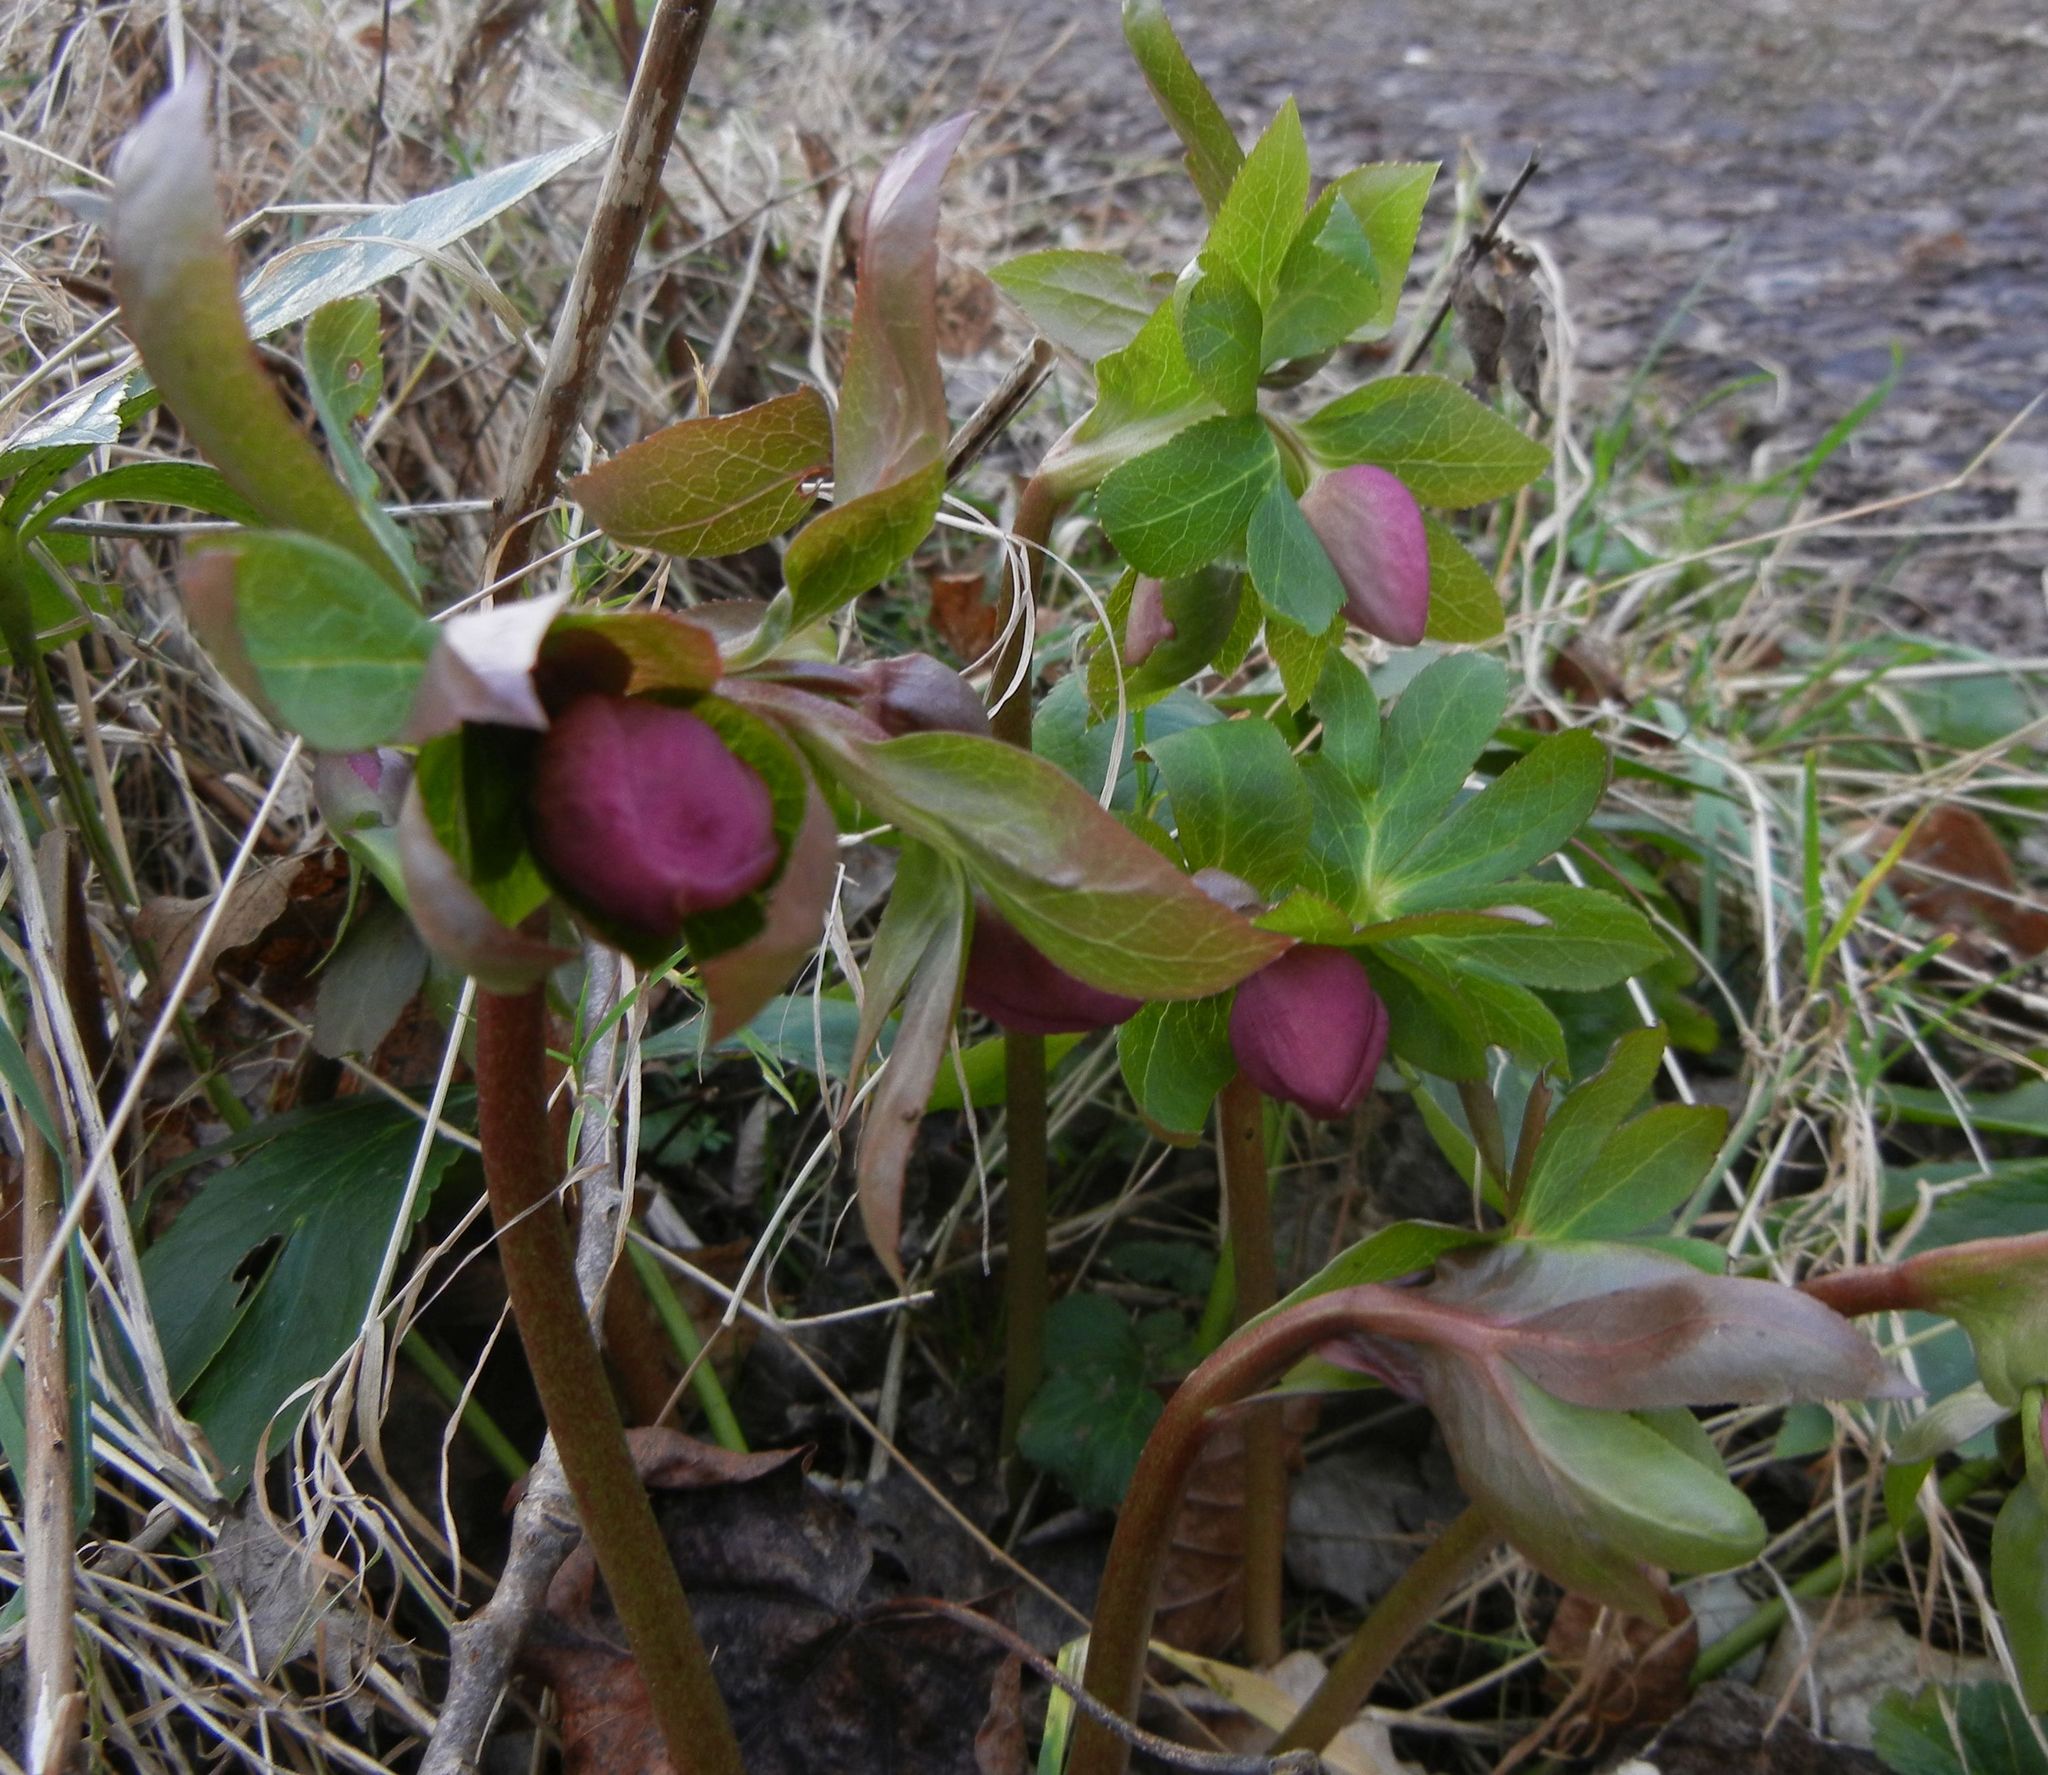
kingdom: Plantae
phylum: Tracheophyta
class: Magnoliopsida
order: Ranunculales
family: Ranunculaceae
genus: Helleborus
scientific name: Helleborus orientalis
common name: Lenten-rose
